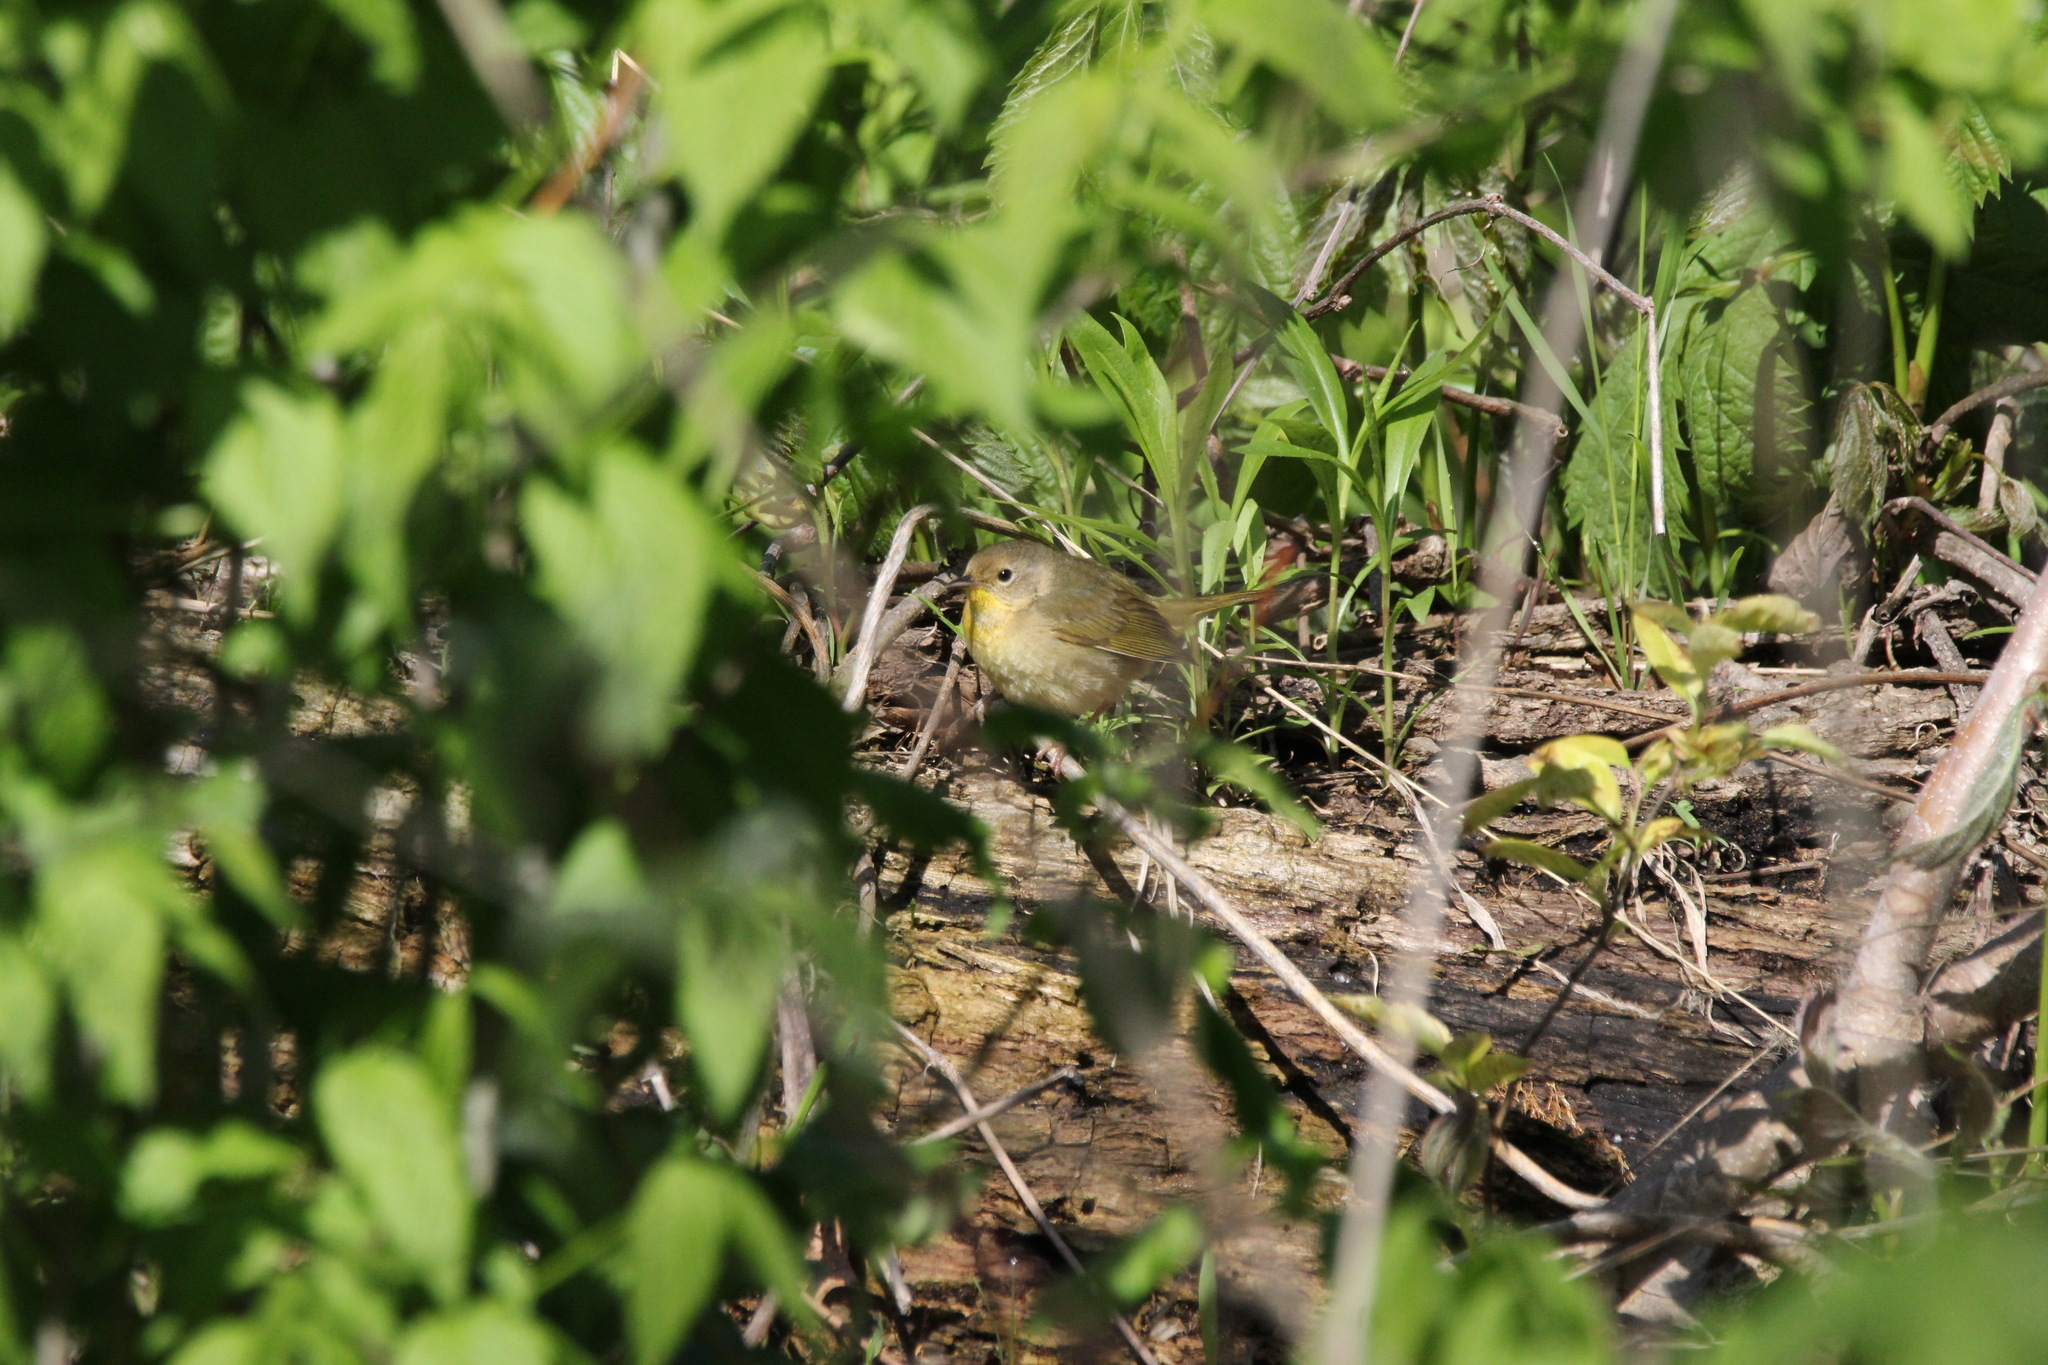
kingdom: Animalia
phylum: Chordata
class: Aves
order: Passeriformes
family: Parulidae
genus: Geothlypis
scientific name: Geothlypis trichas
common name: Common yellowthroat
